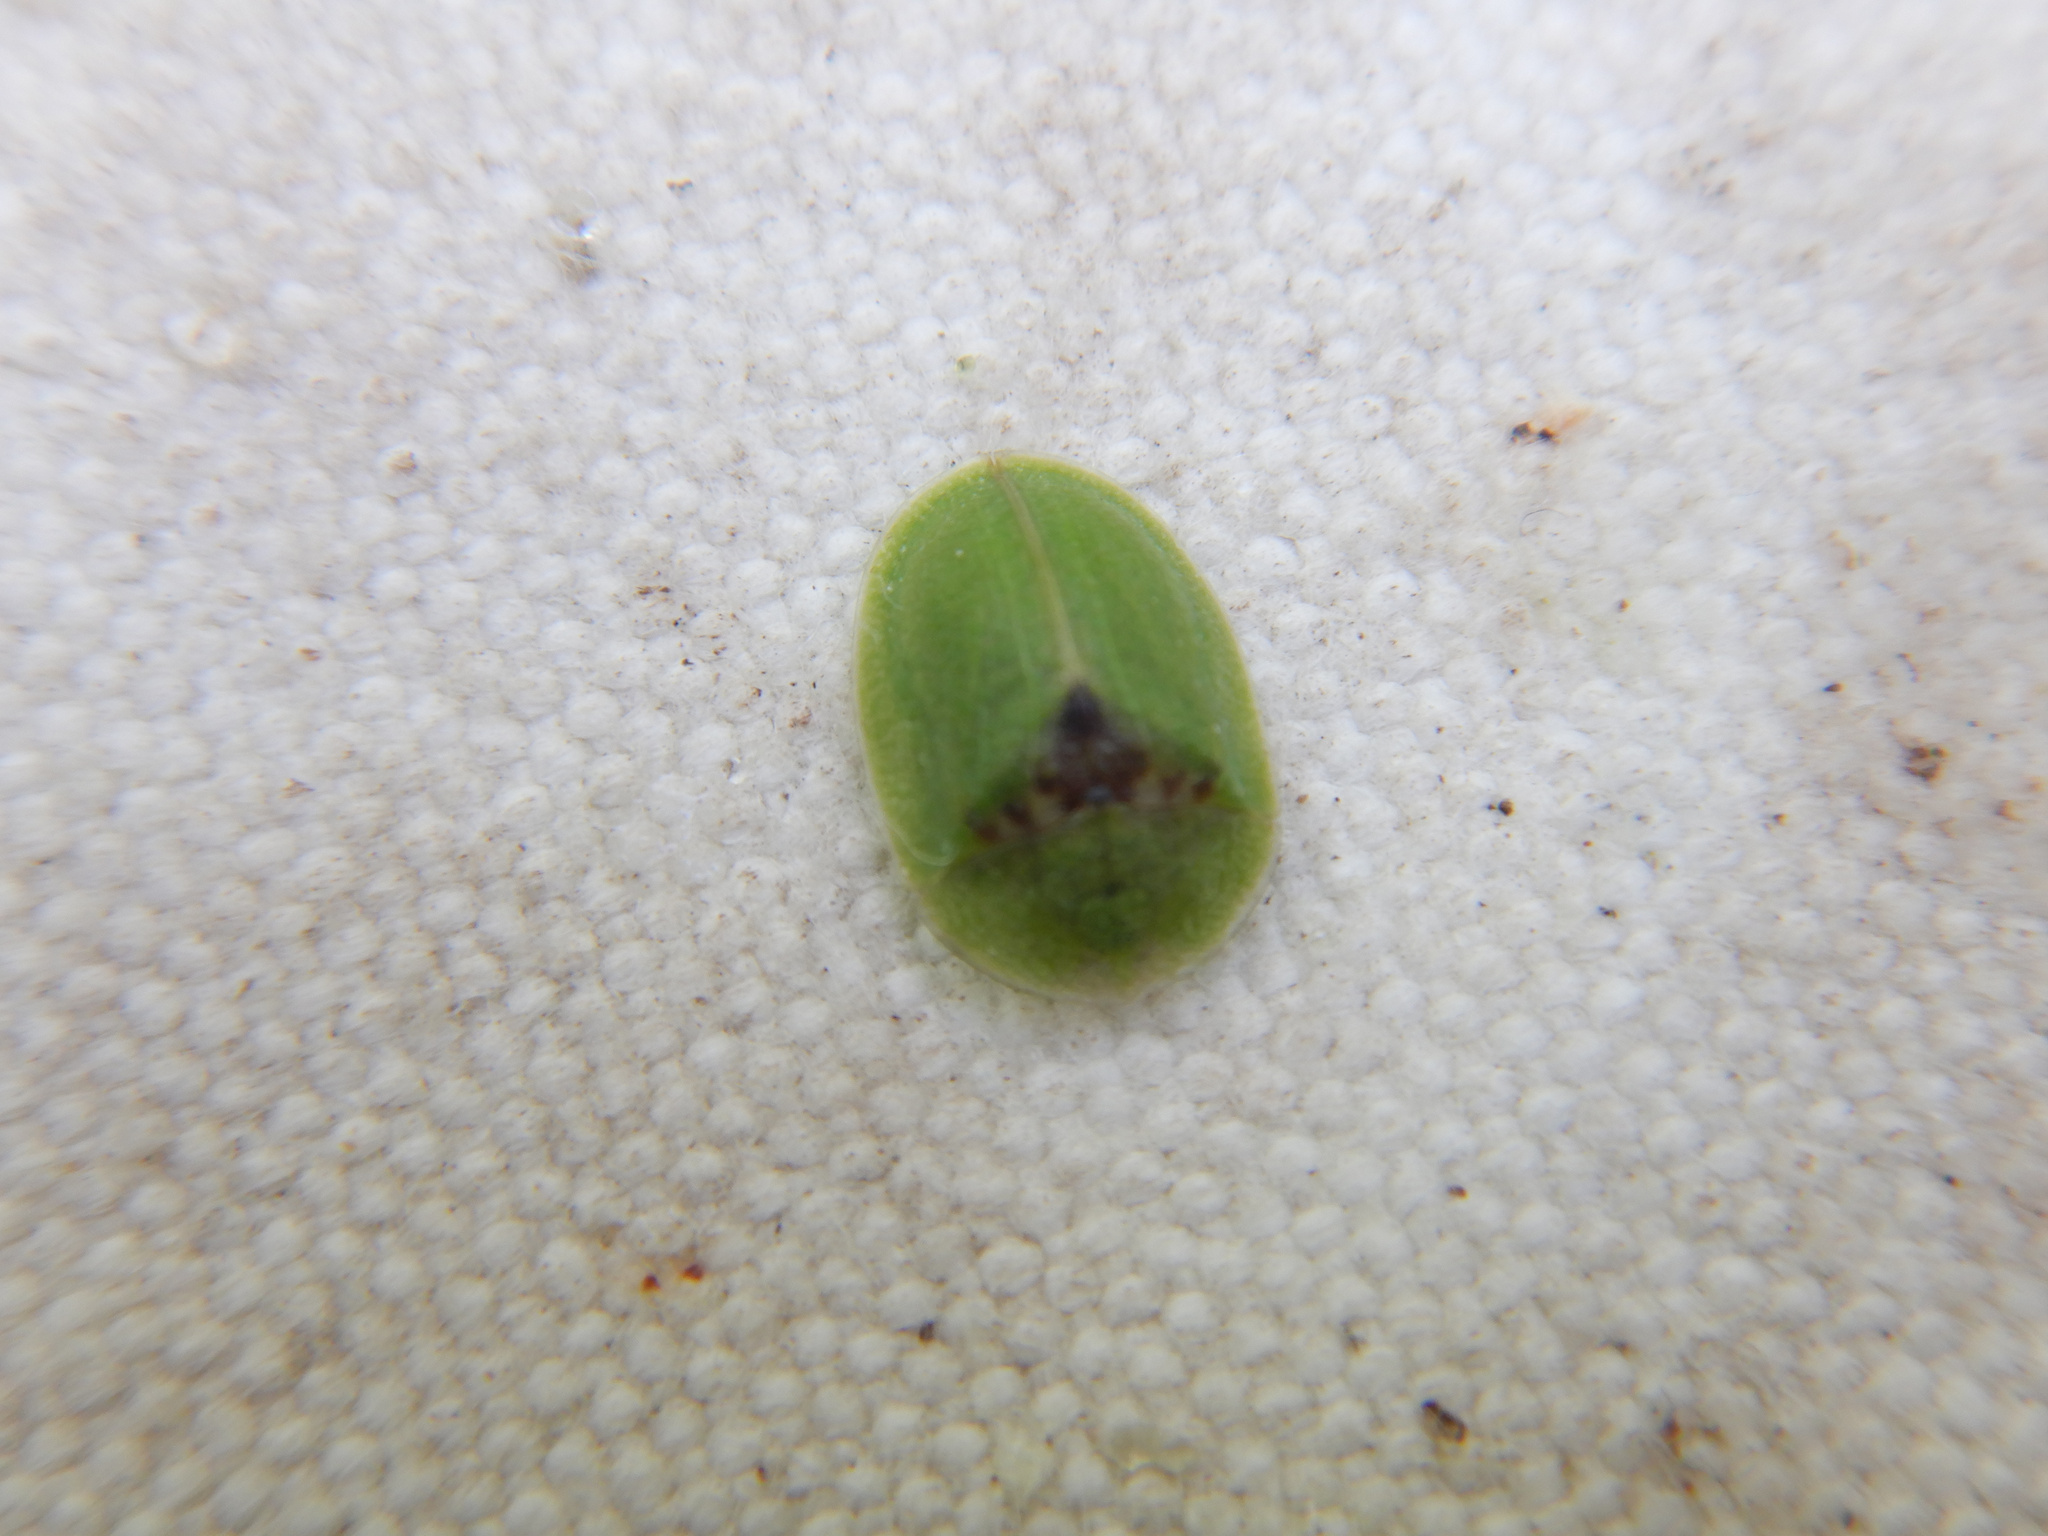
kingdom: Animalia
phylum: Arthropoda
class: Insecta
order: Coleoptera
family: Chrysomelidae
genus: Cassida
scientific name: Cassida rubiginosa
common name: Thistle tortoise beetle
